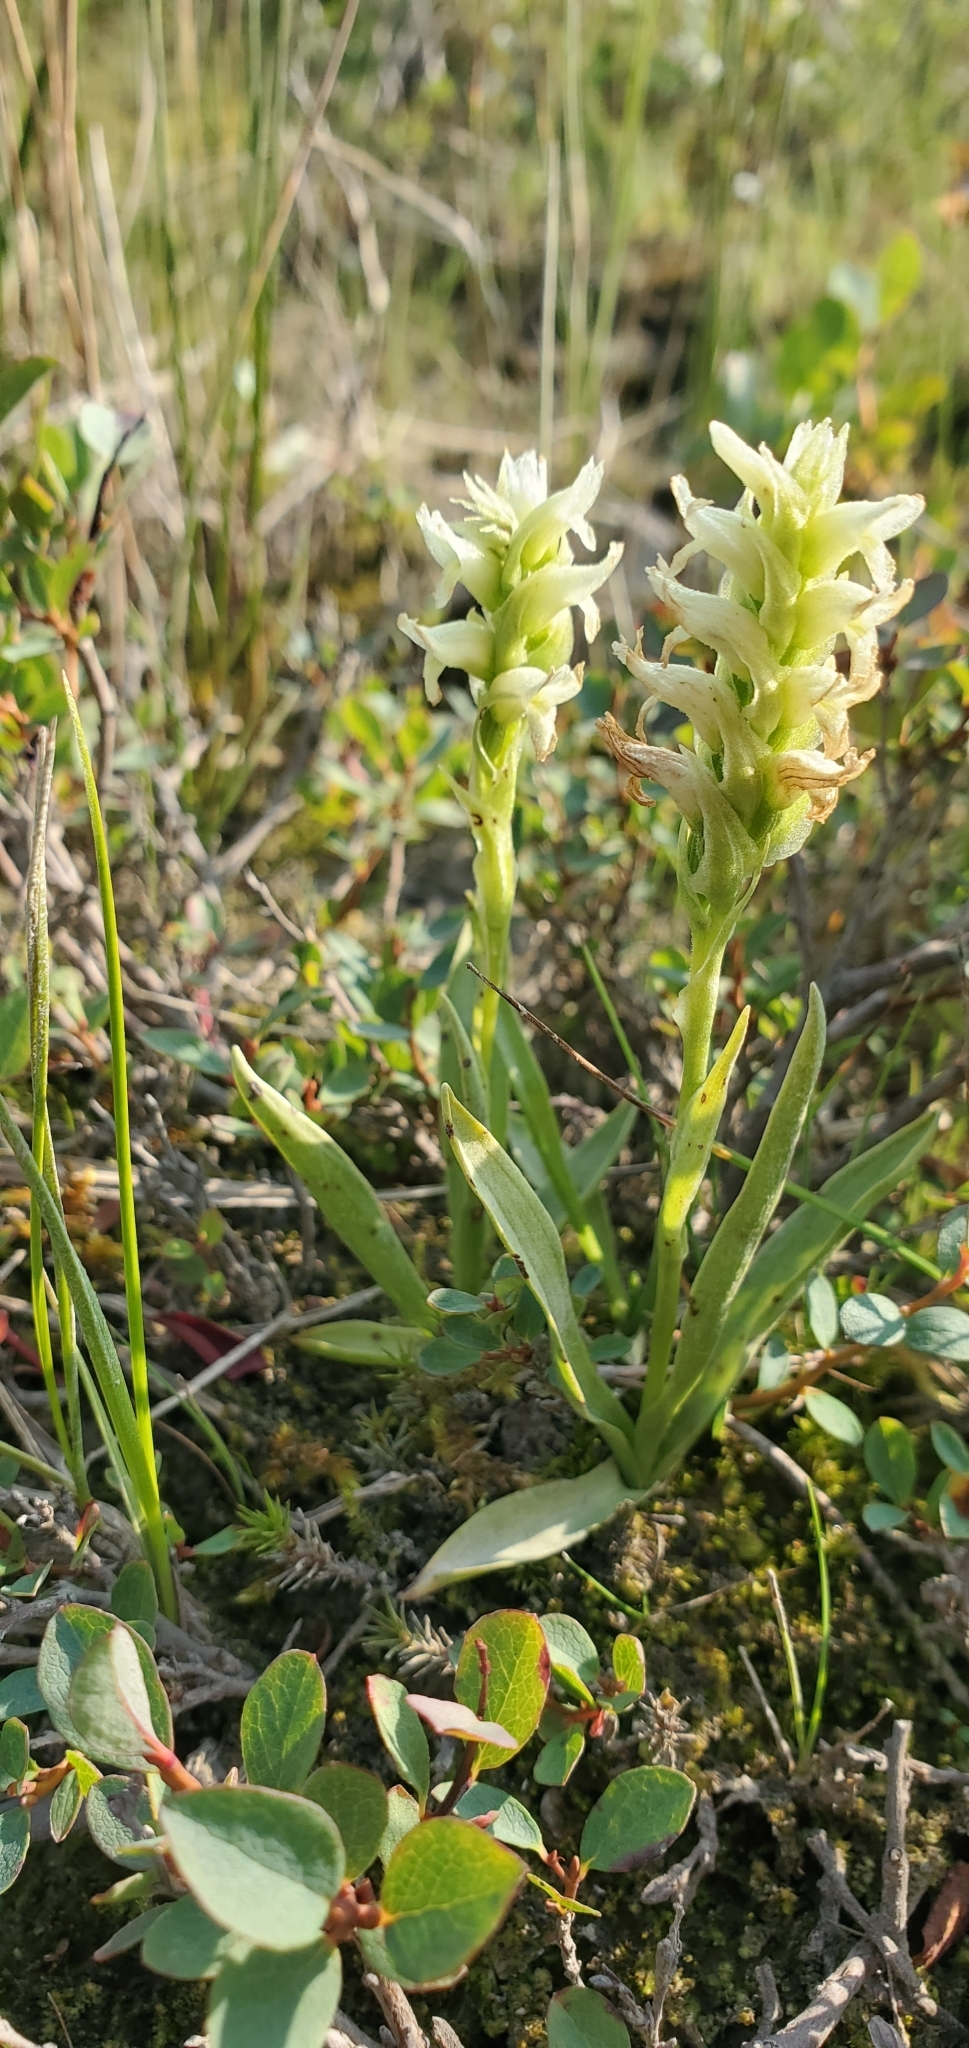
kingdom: Plantae
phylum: Tracheophyta
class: Liliopsida
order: Asparagales
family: Orchidaceae
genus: Spiranthes
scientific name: Spiranthes romanzoffiana
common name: Irish lady's-tresses
